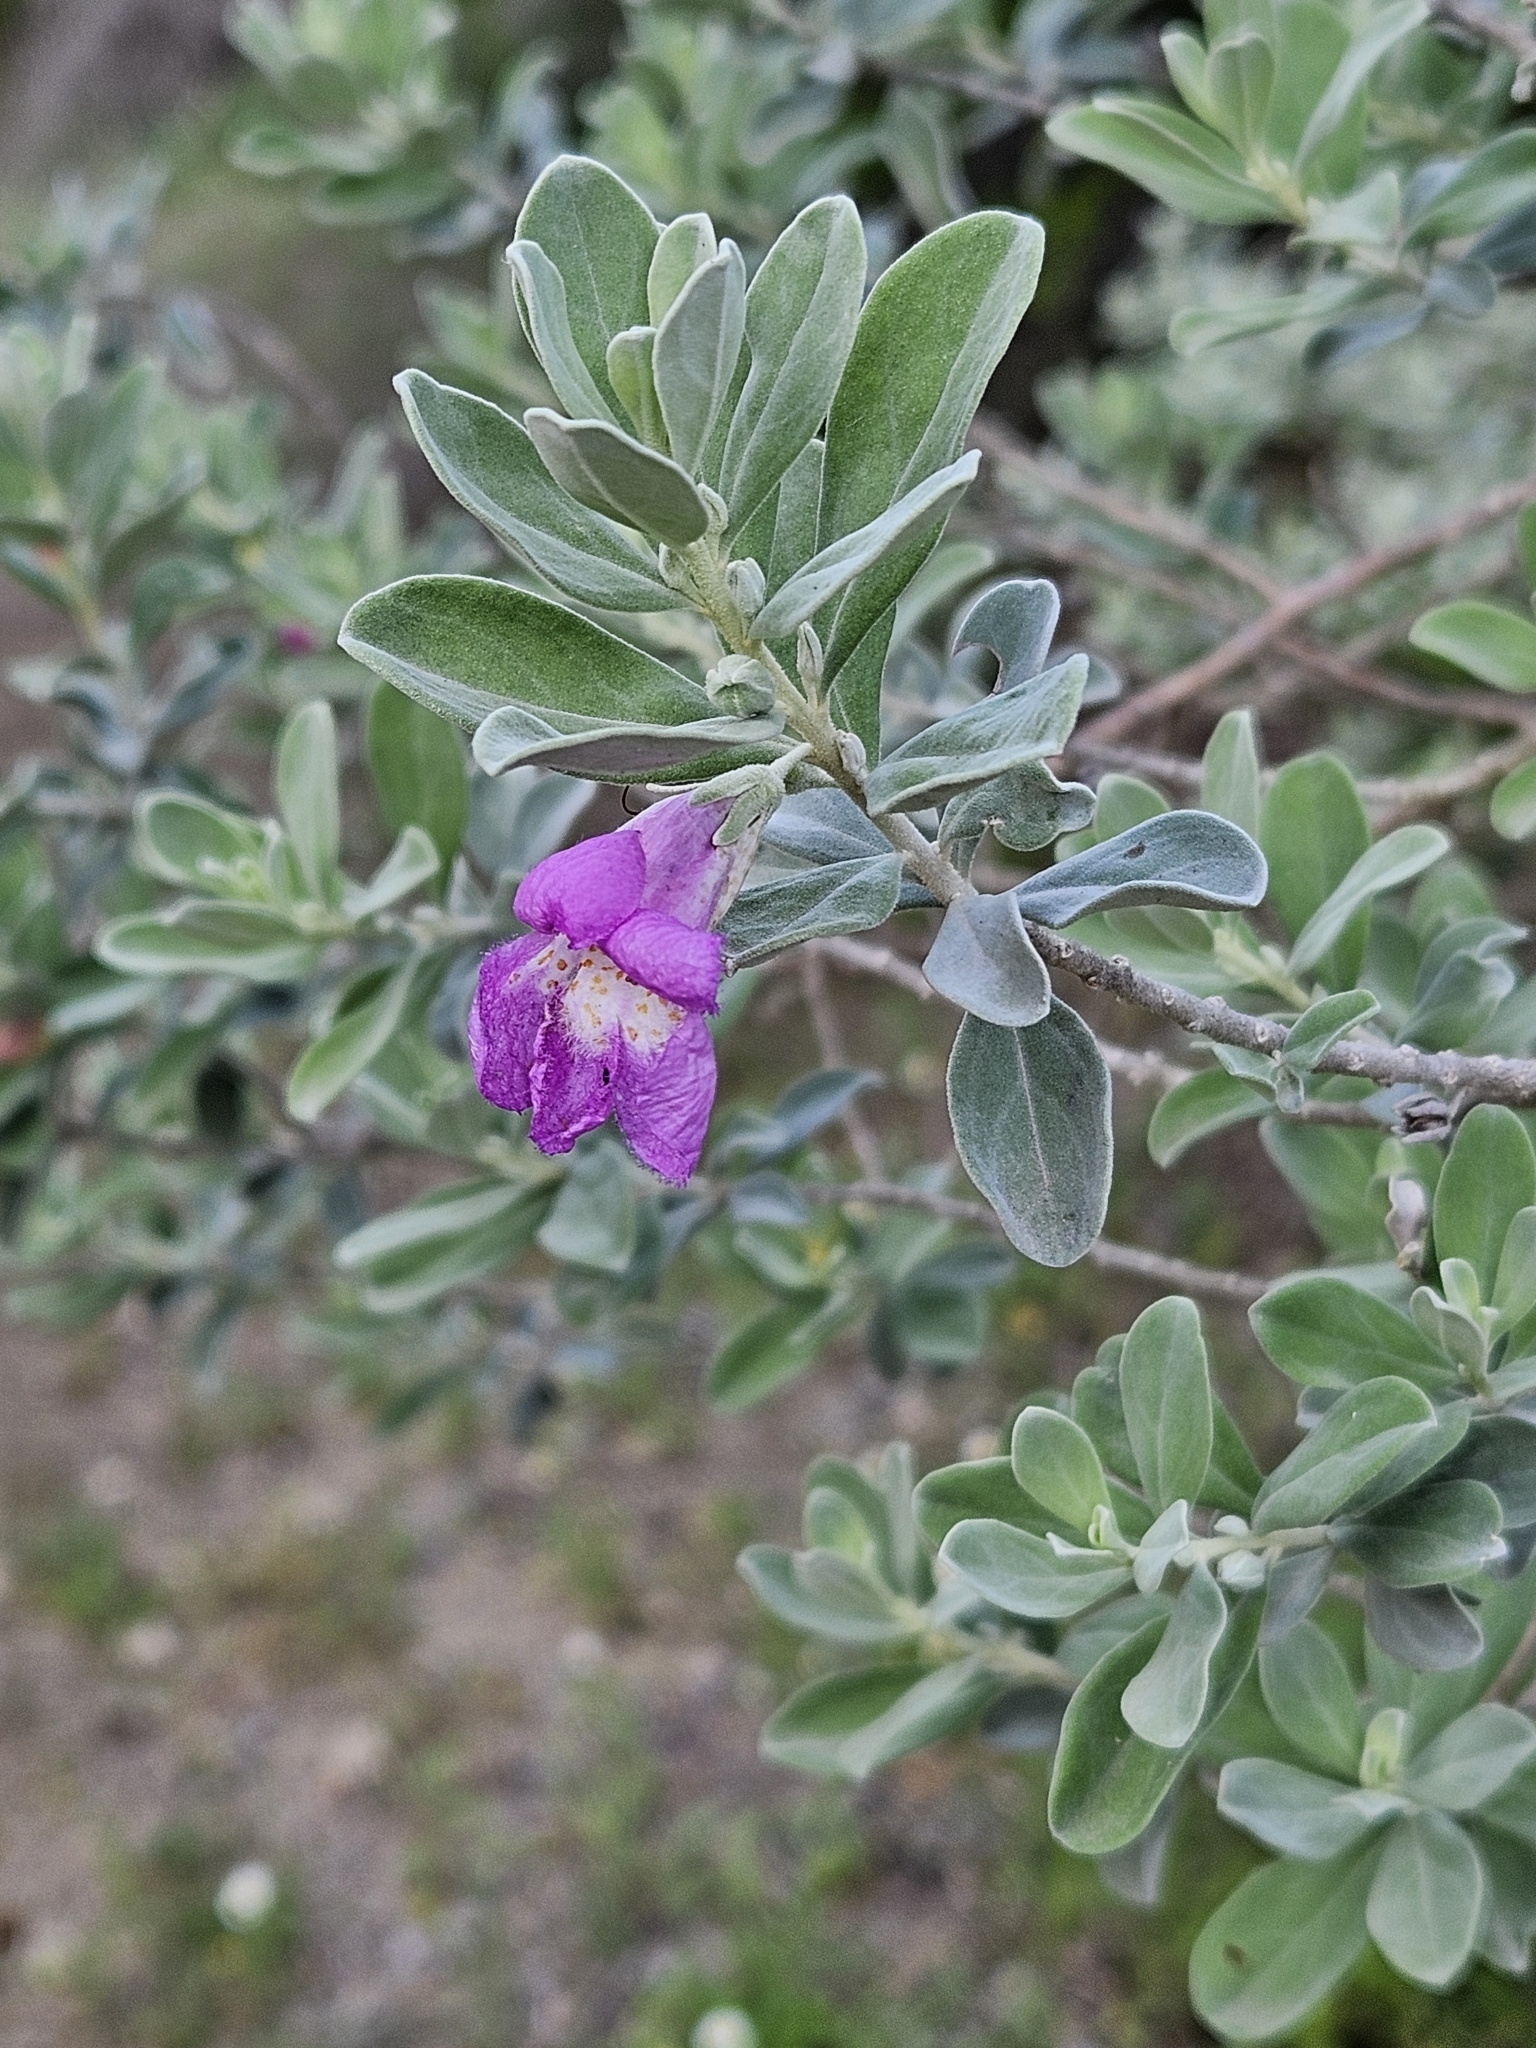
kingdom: Plantae
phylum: Tracheophyta
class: Magnoliopsida
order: Lamiales
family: Scrophulariaceae
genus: Leucophyllum
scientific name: Leucophyllum frutescens
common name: Texas silverleaf
